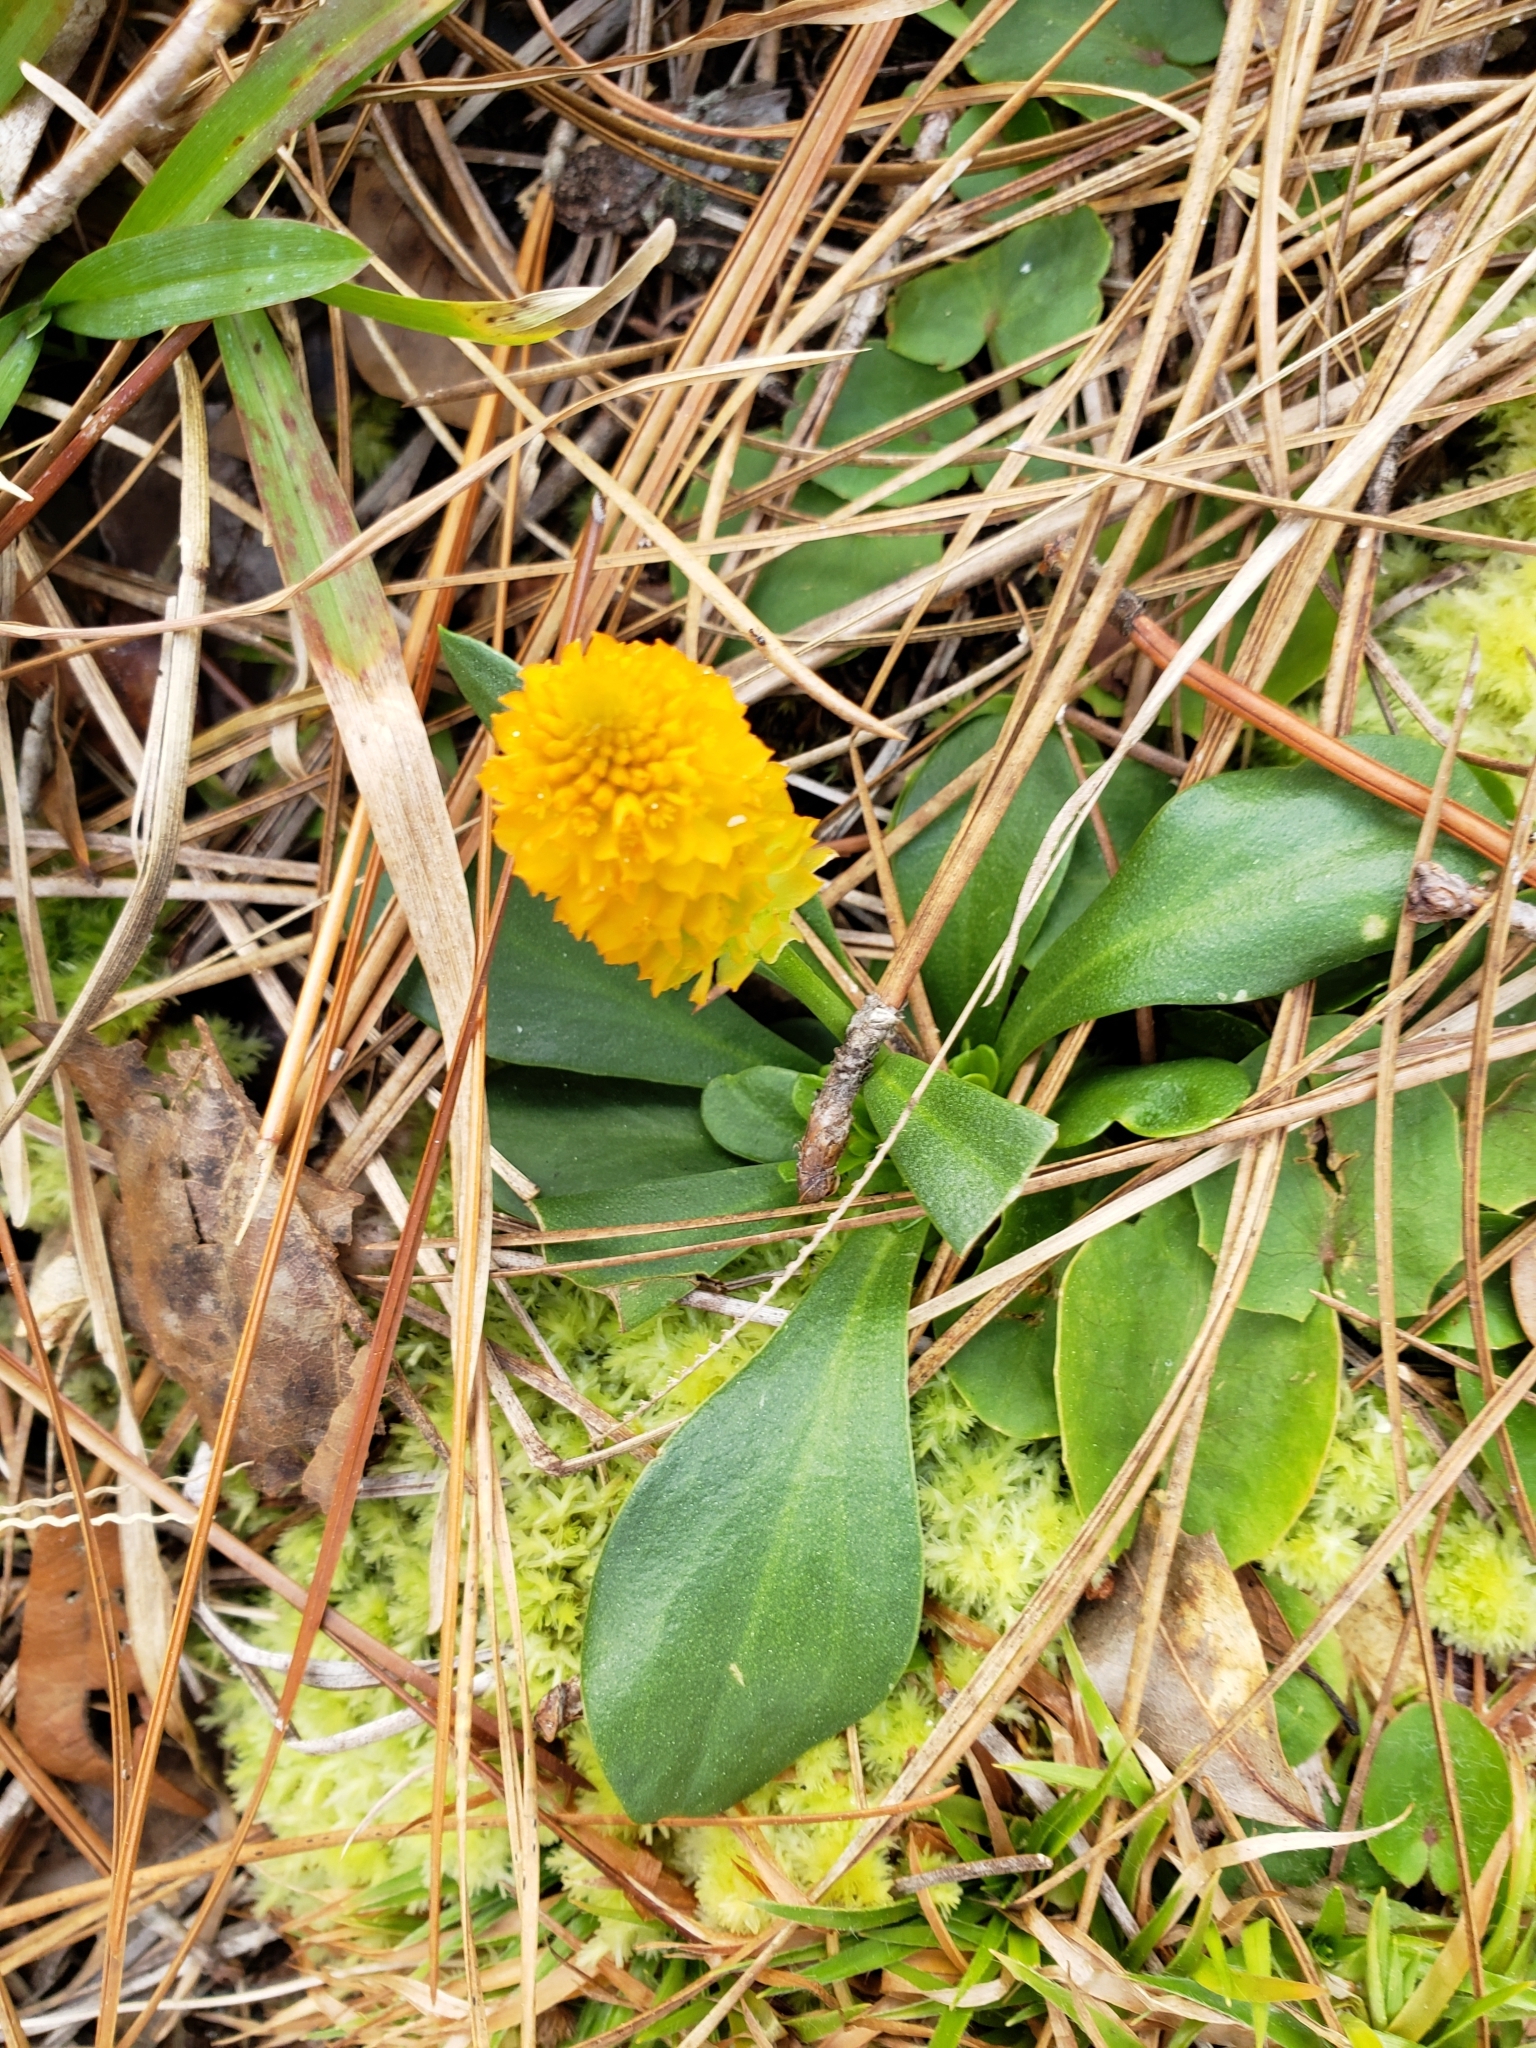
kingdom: Plantae
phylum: Tracheophyta
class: Magnoliopsida
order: Fabales
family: Polygalaceae
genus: Polygala
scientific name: Polygala lutea
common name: Orange milkwort
